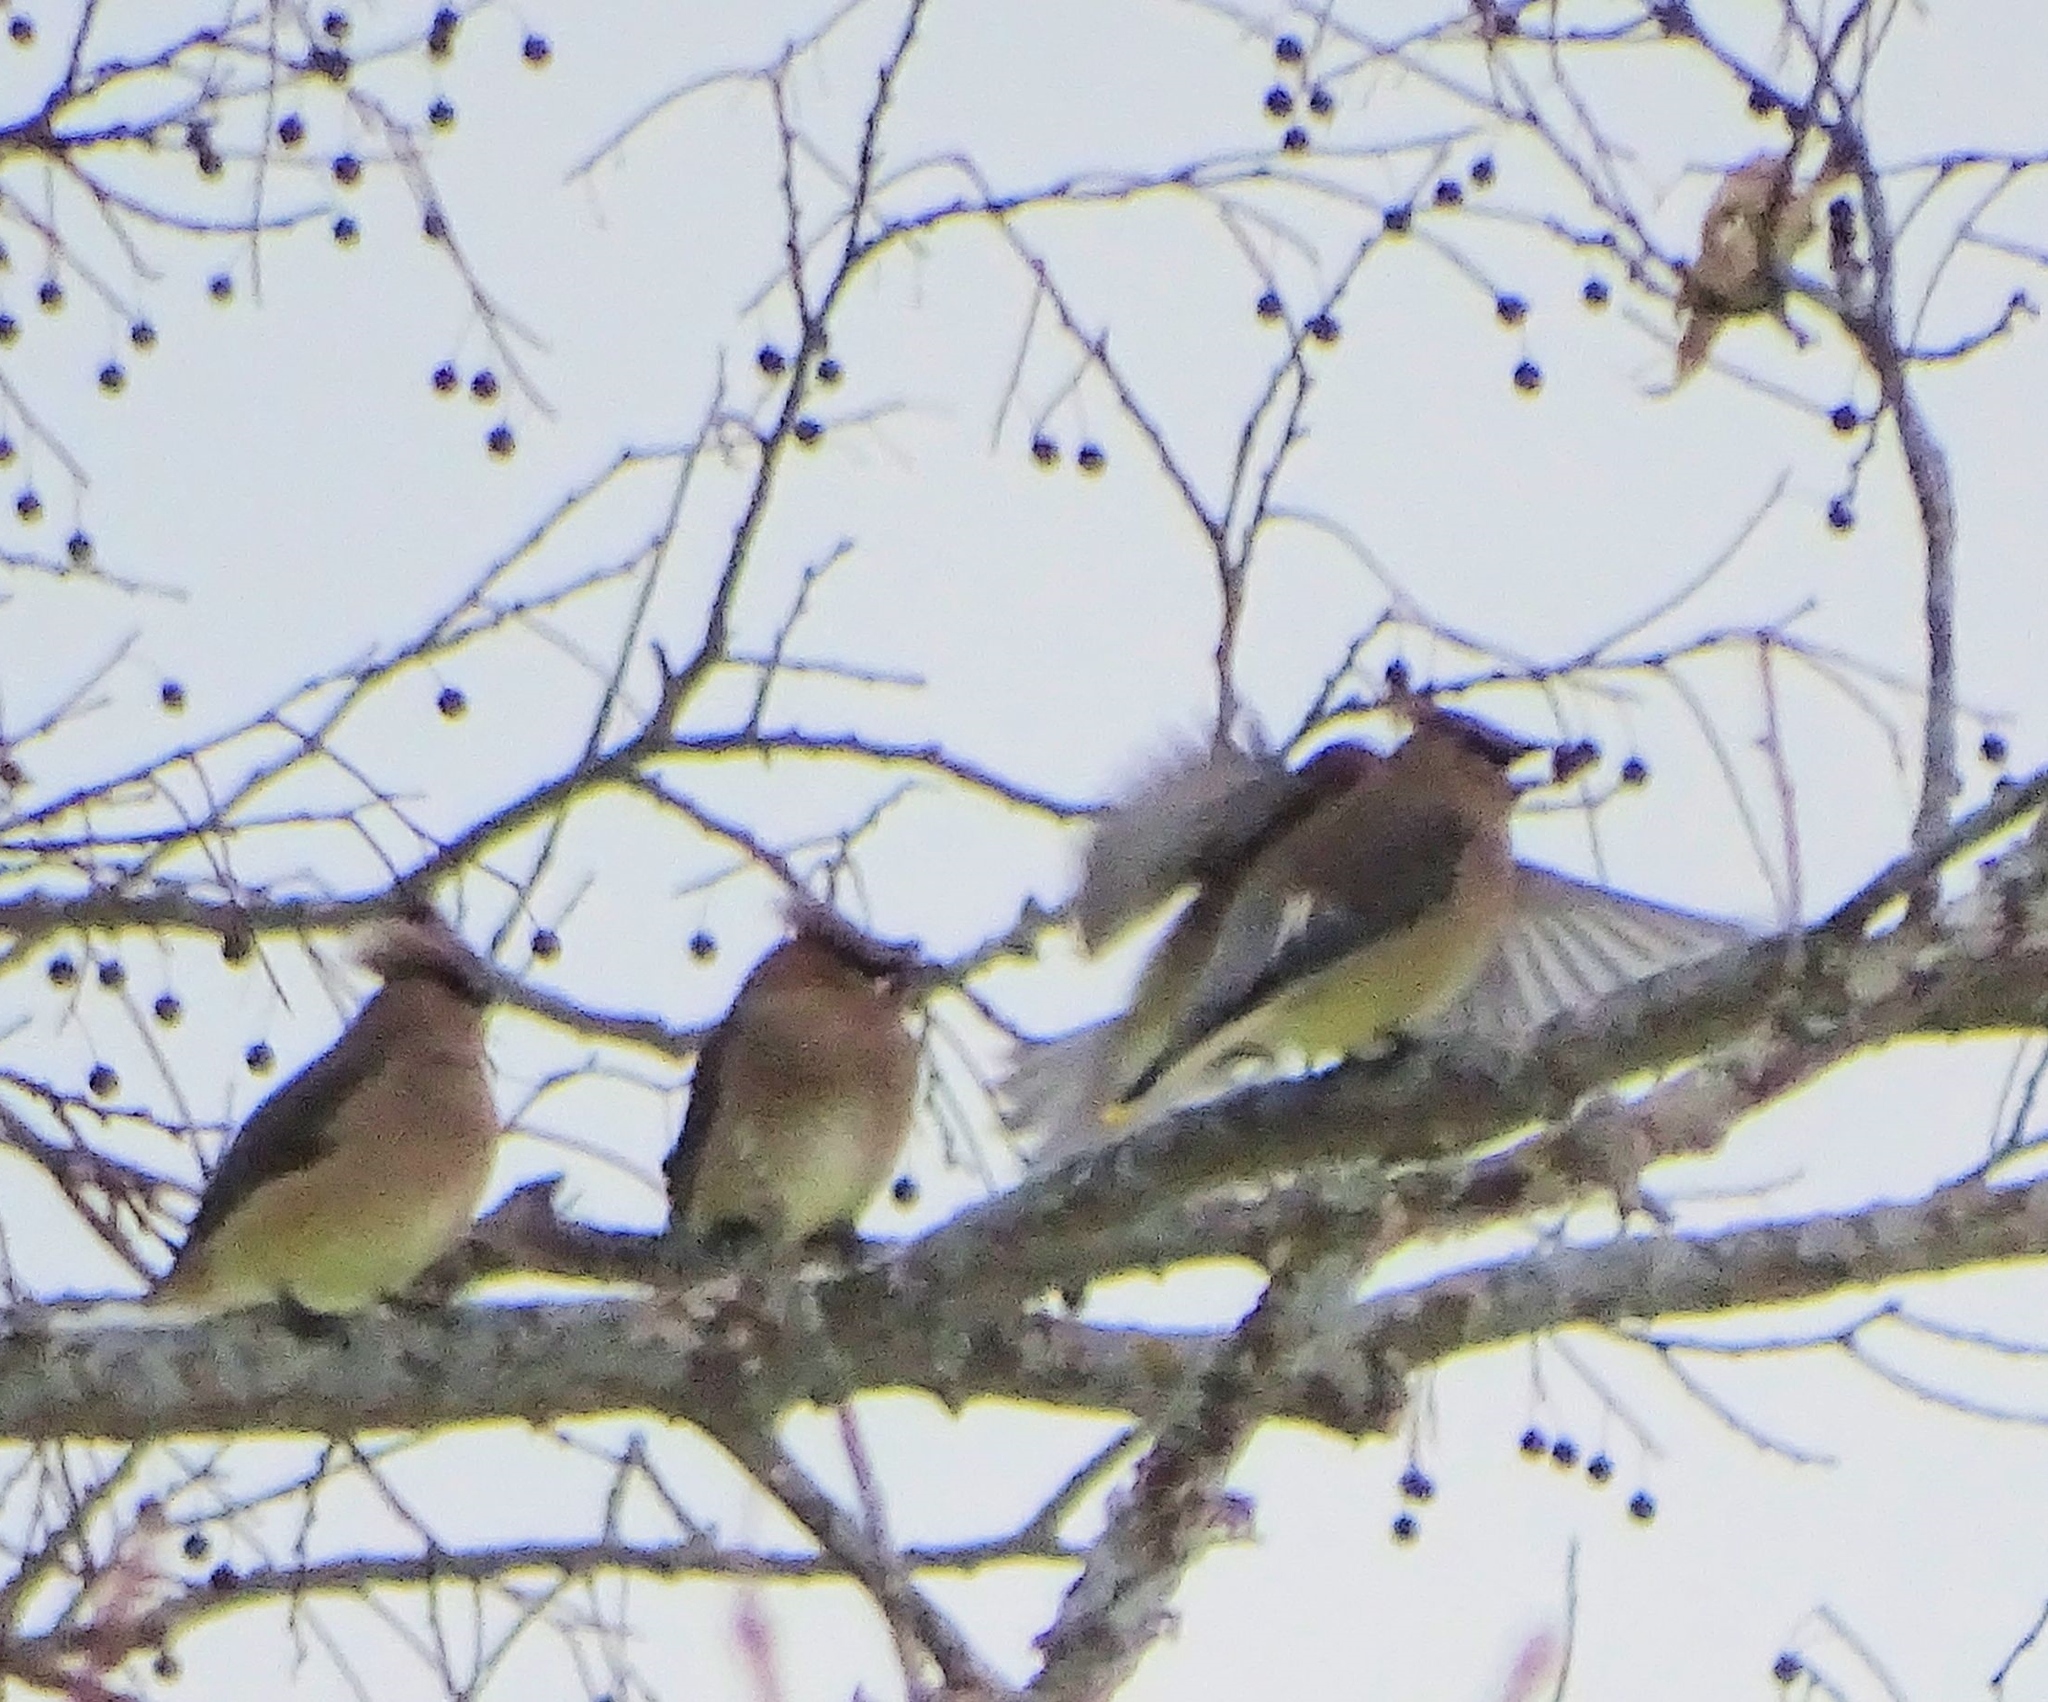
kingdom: Animalia
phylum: Chordata
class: Aves
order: Passeriformes
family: Bombycillidae
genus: Bombycilla
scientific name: Bombycilla cedrorum
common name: Cedar waxwing
